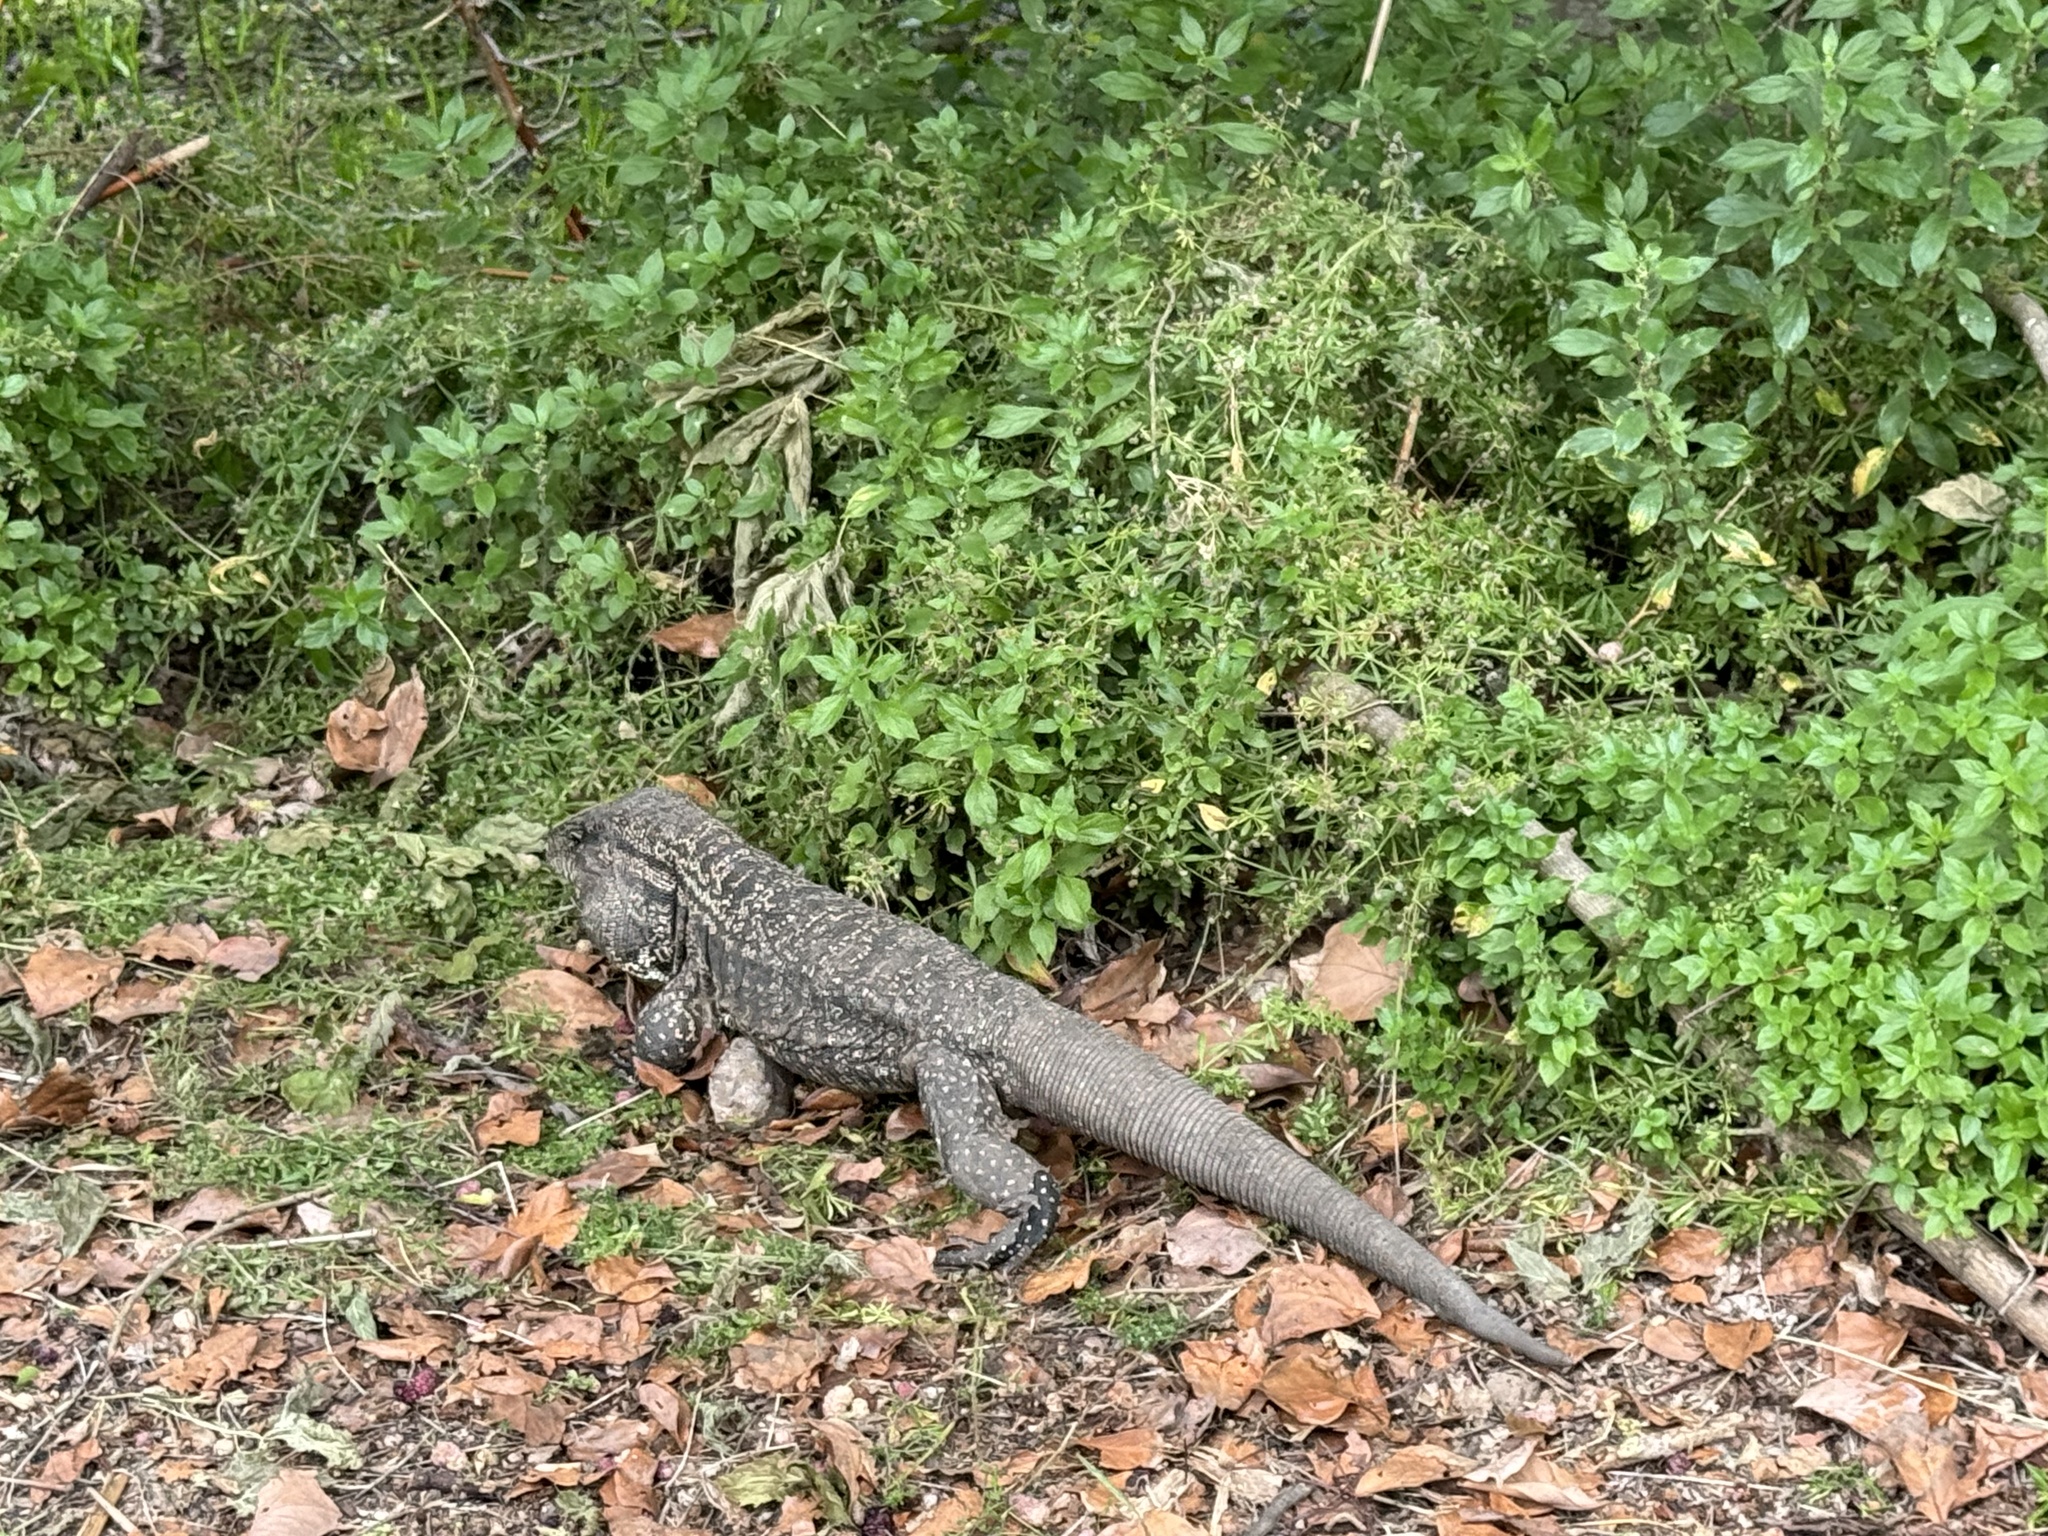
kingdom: Animalia
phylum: Chordata
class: Squamata
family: Teiidae
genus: Salvator
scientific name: Salvator merianae
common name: Argentine black and white tegu
